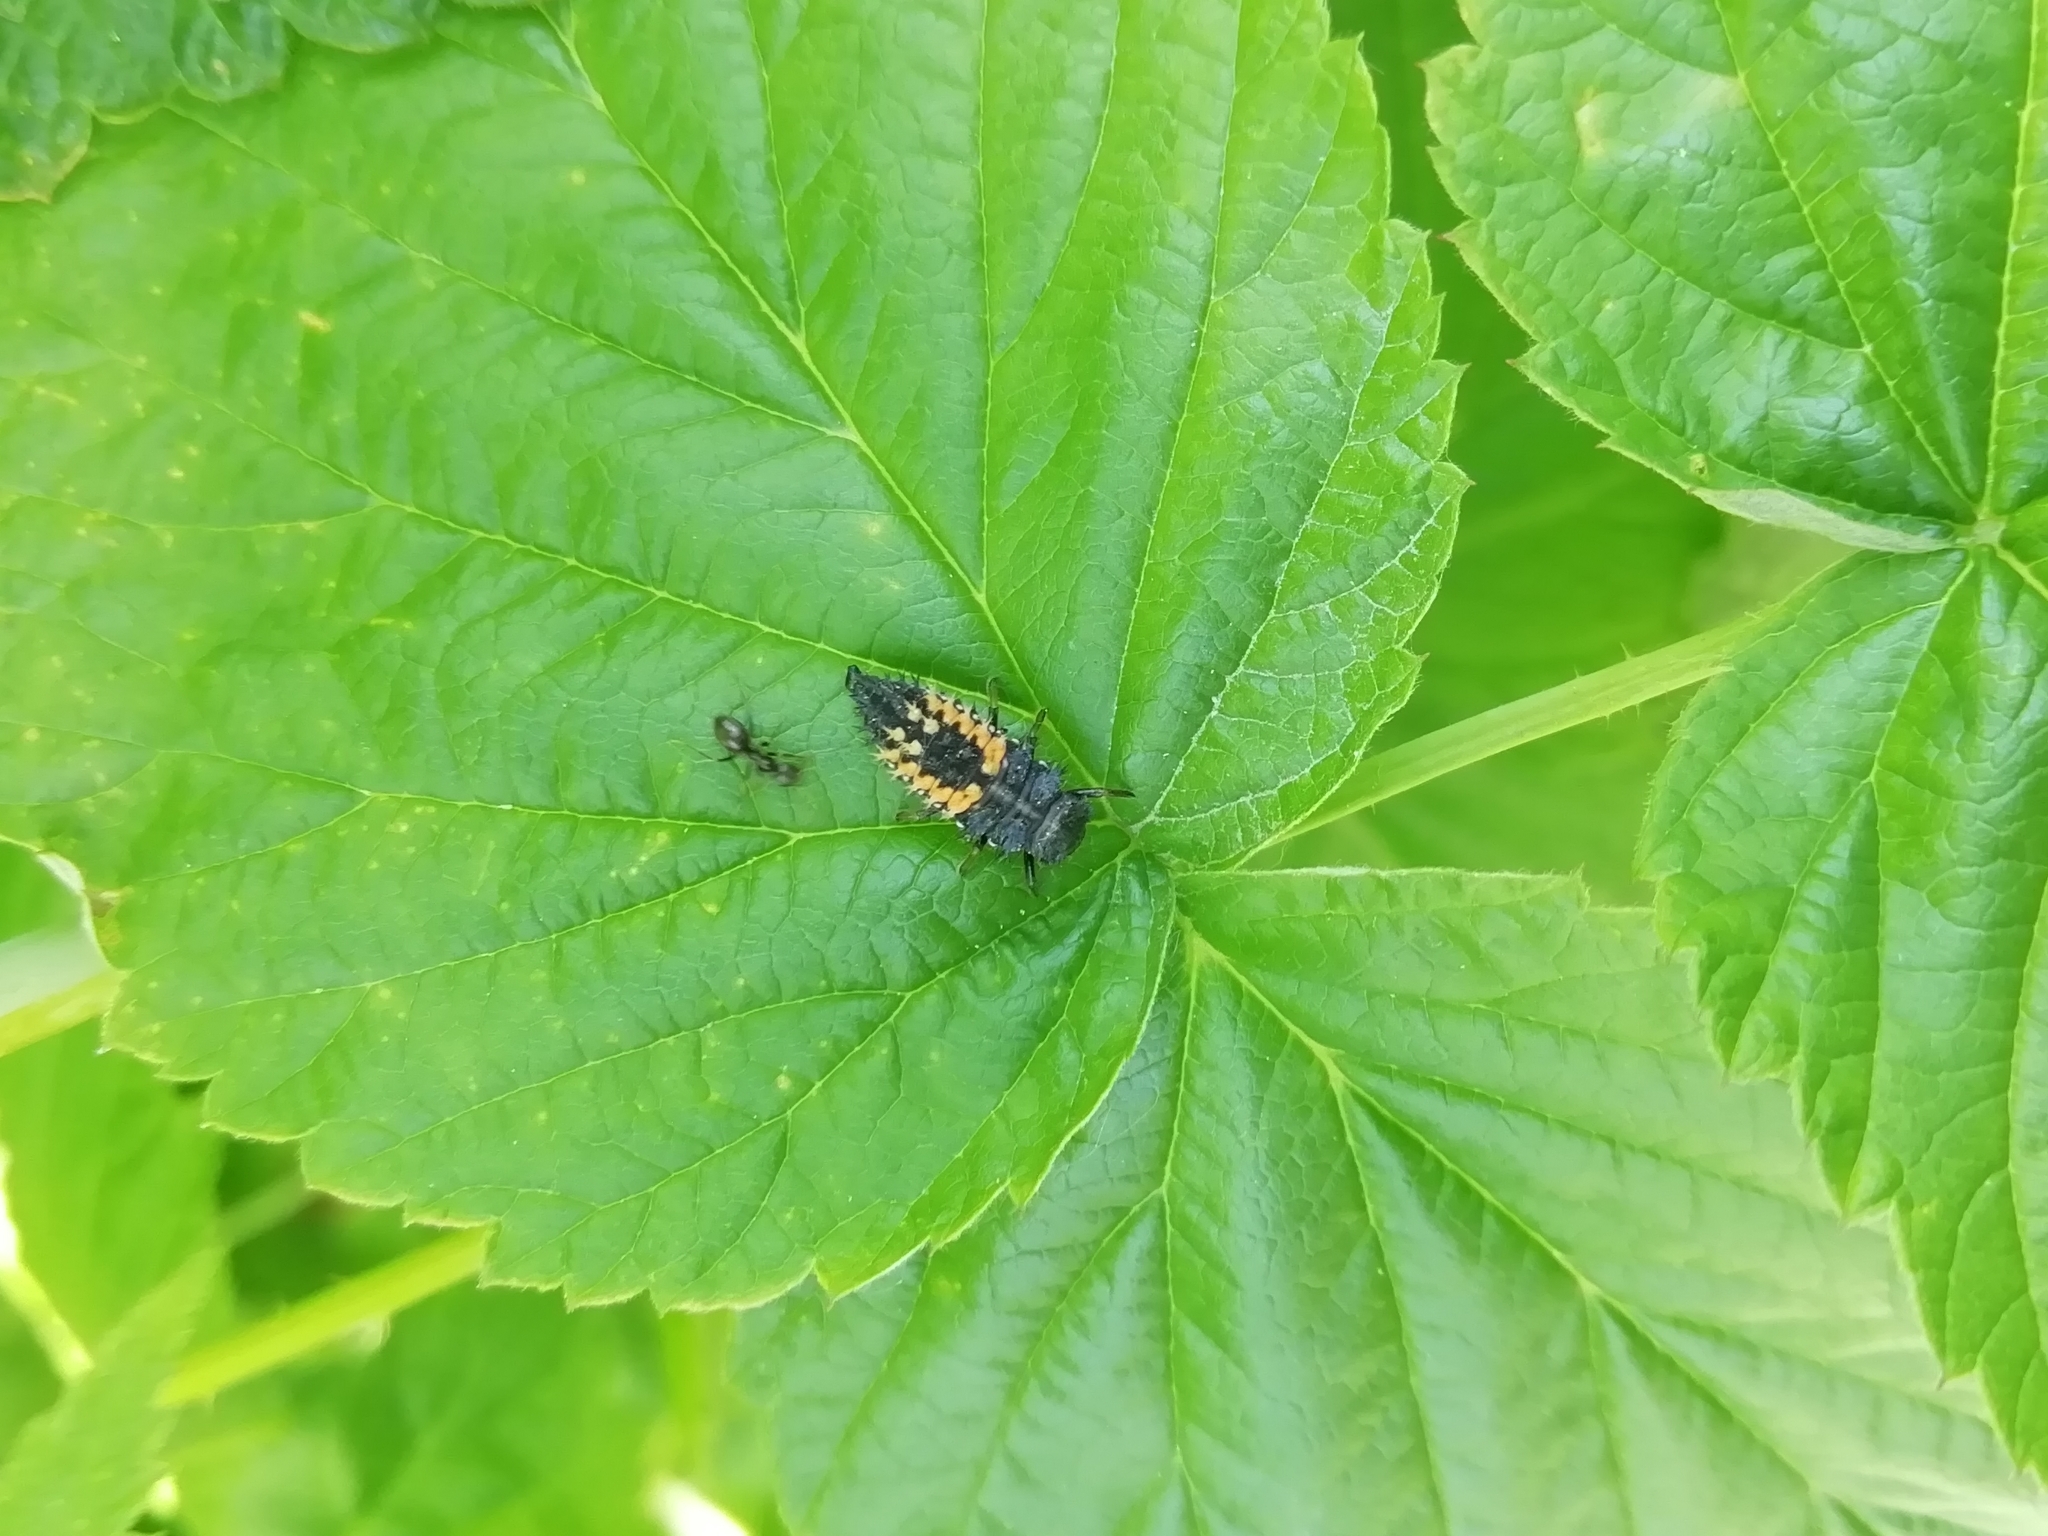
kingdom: Animalia
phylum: Arthropoda
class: Insecta
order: Coleoptera
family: Coccinellidae
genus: Harmonia
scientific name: Harmonia axyridis
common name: Harlequin ladybird
